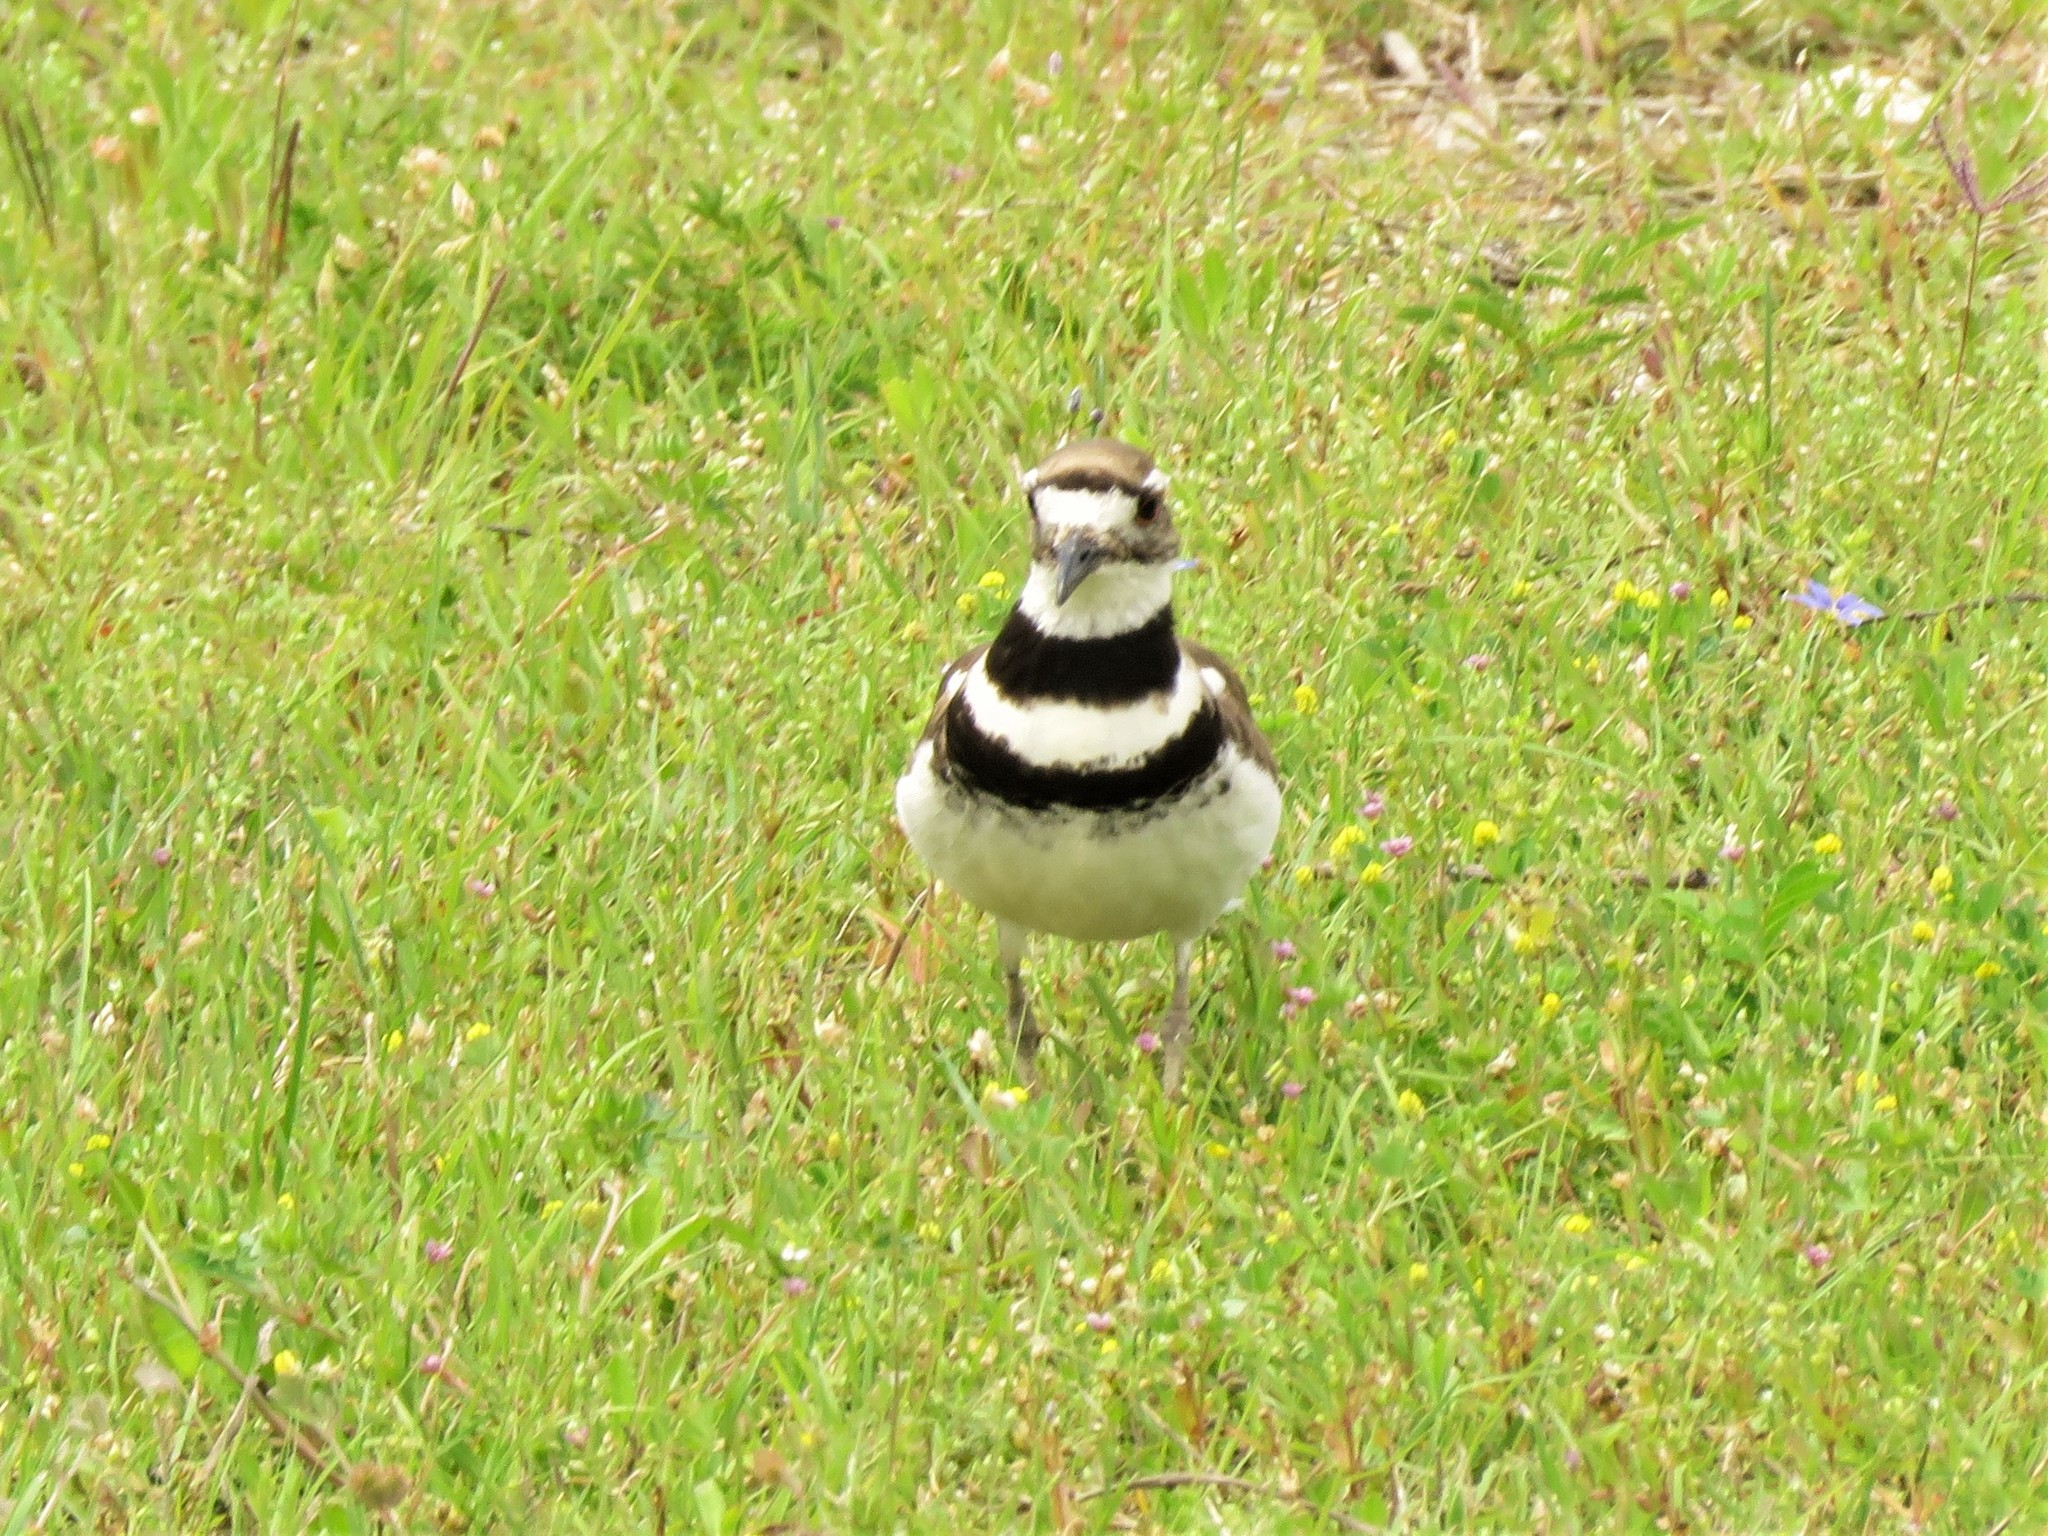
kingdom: Animalia
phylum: Chordata
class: Aves
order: Charadriiformes
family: Charadriidae
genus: Charadrius
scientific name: Charadrius vociferus
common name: Killdeer
